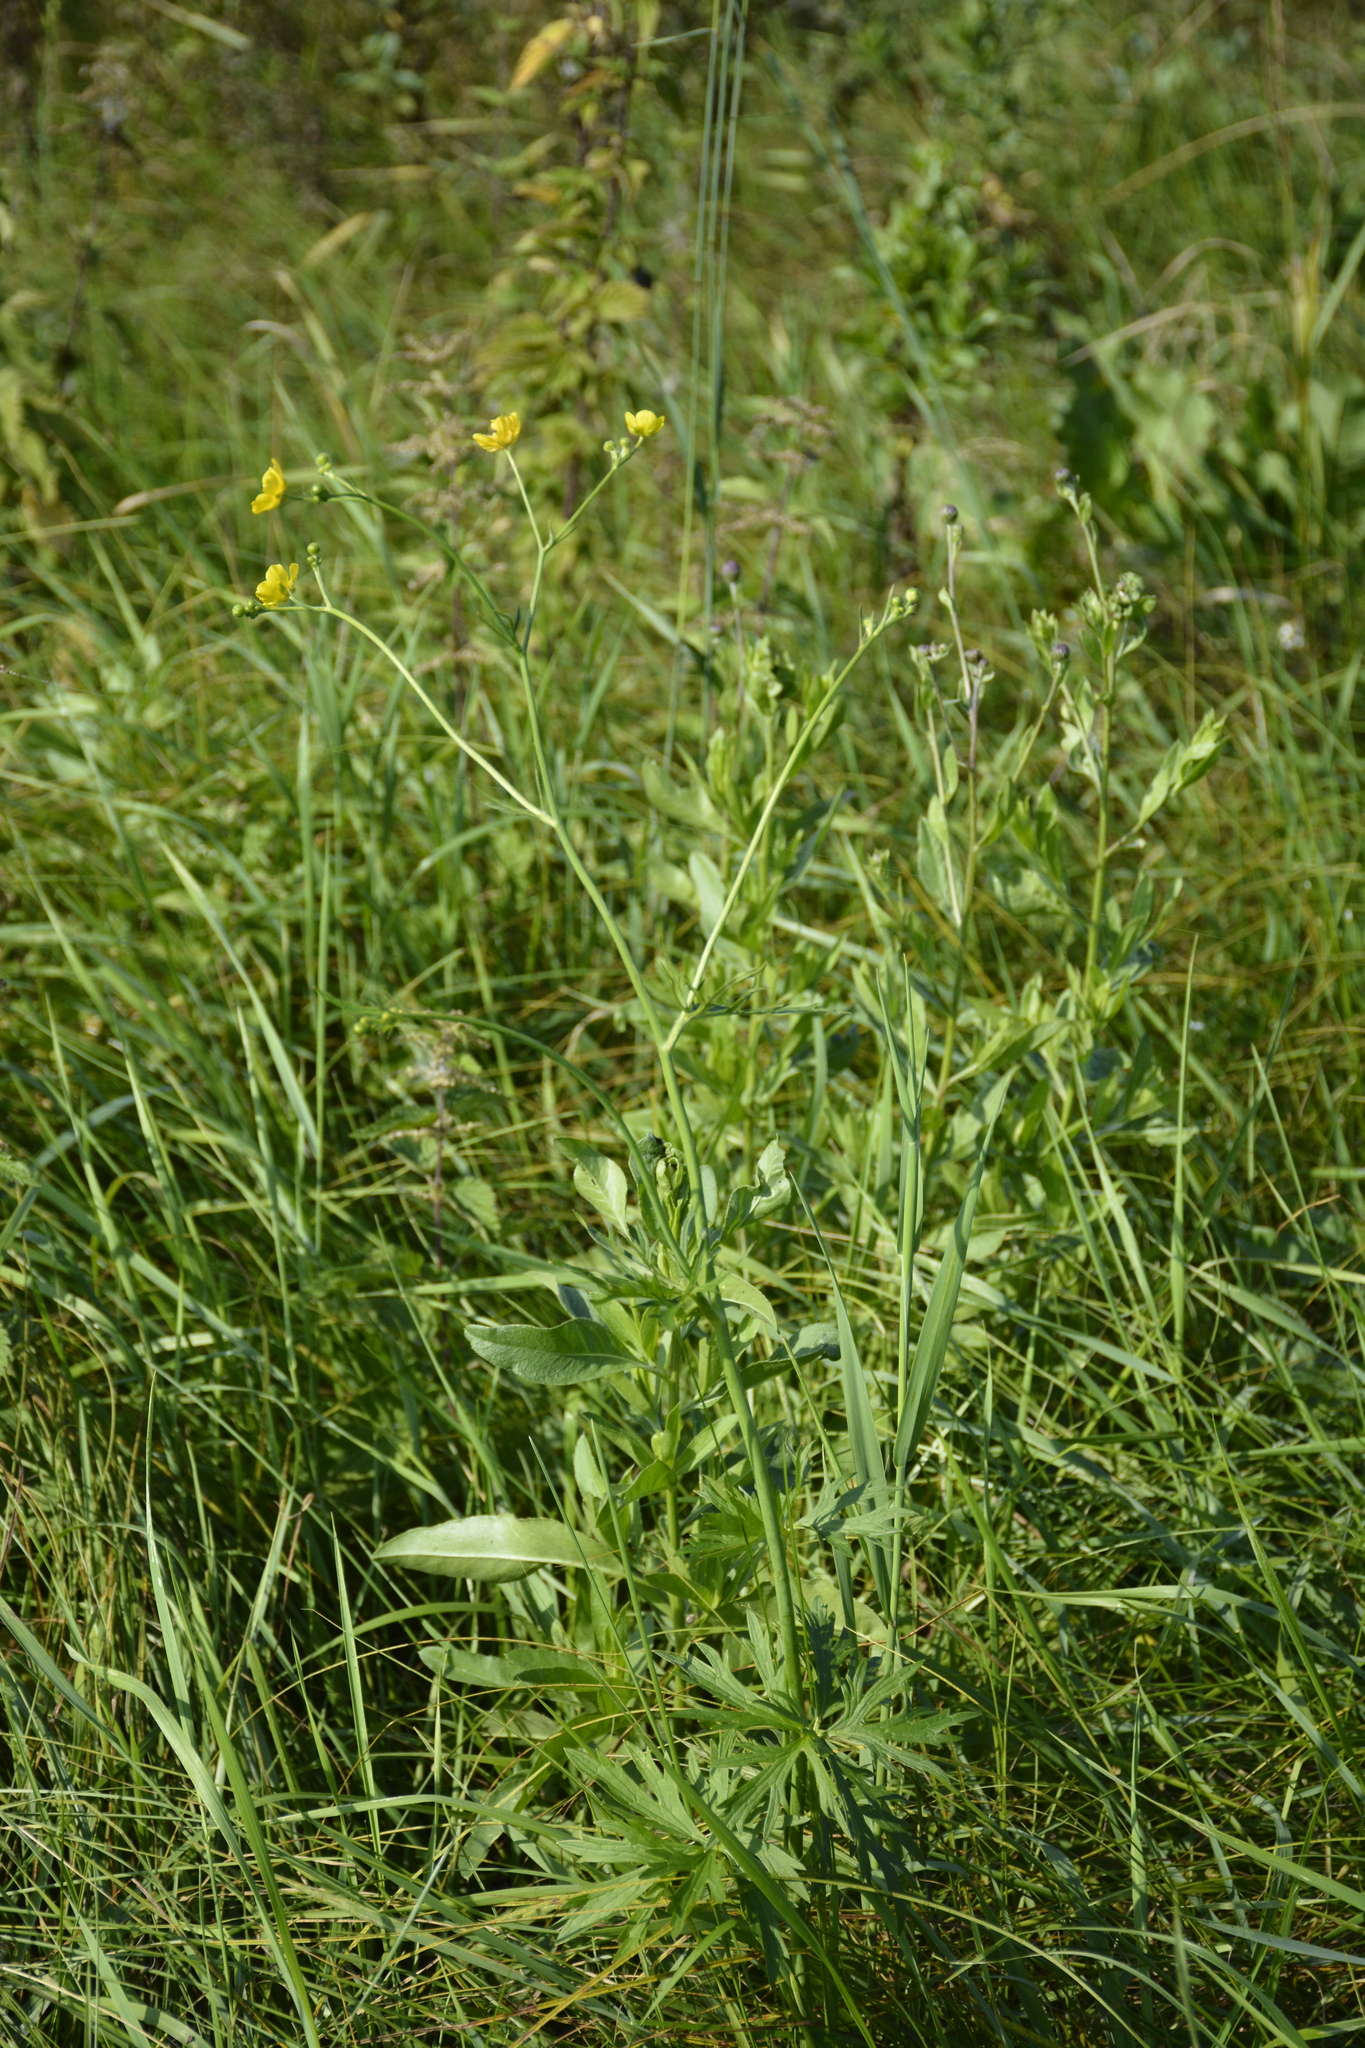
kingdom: Plantae
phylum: Tracheophyta
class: Magnoliopsida
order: Ranunculales
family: Ranunculaceae
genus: Ranunculus
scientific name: Ranunculus acris
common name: Meadow buttercup
